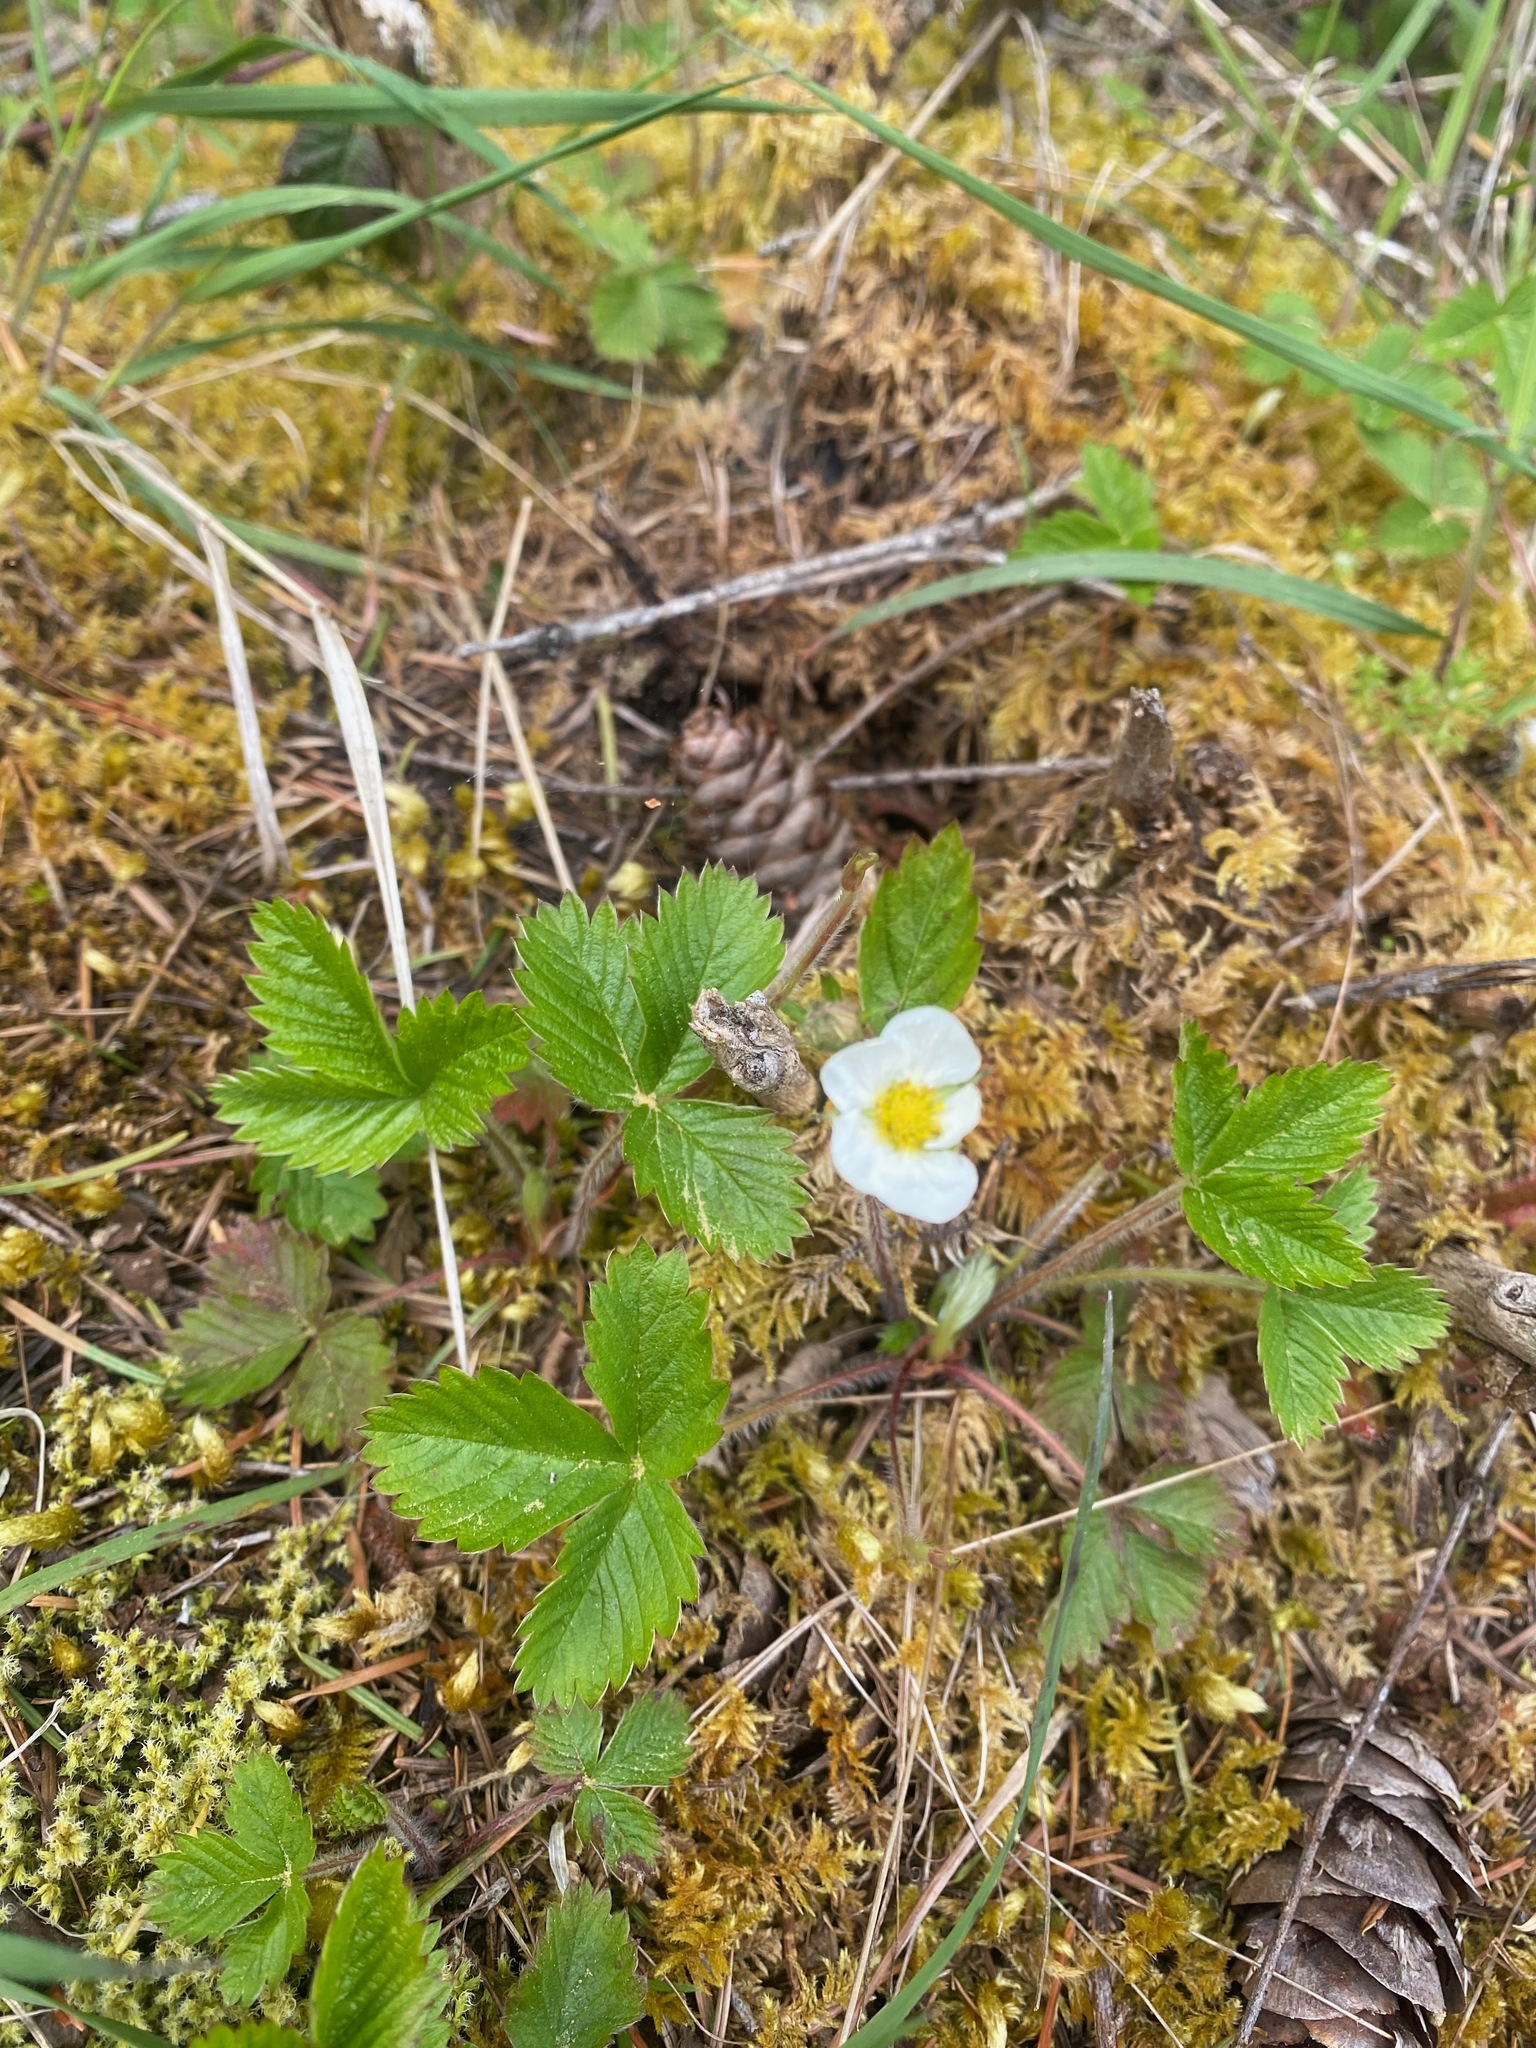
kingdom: Plantae
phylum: Tracheophyta
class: Magnoliopsida
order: Rosales
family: Rosaceae
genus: Fragaria
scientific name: Fragaria vesca
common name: Wild strawberry
